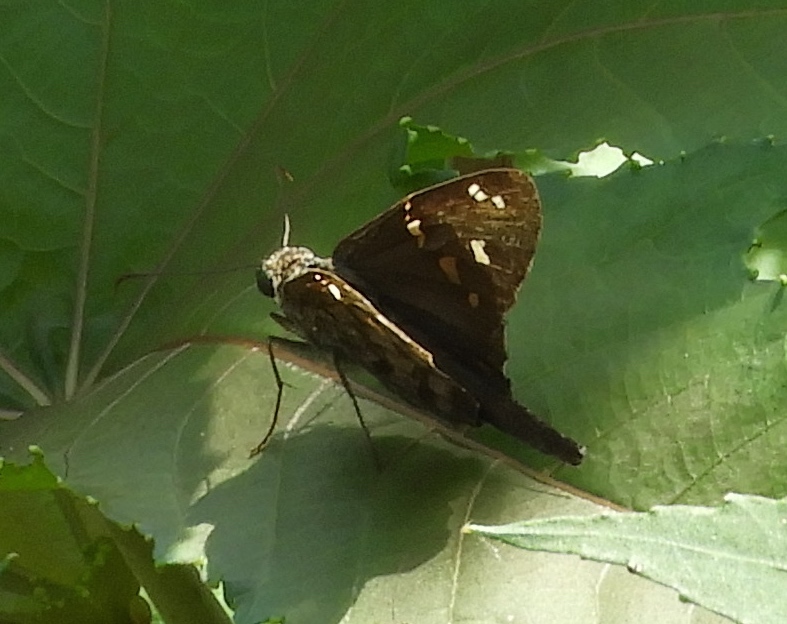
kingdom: Animalia
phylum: Arthropoda
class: Insecta
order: Lepidoptera
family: Hesperiidae
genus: Thorybes
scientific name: Thorybes
